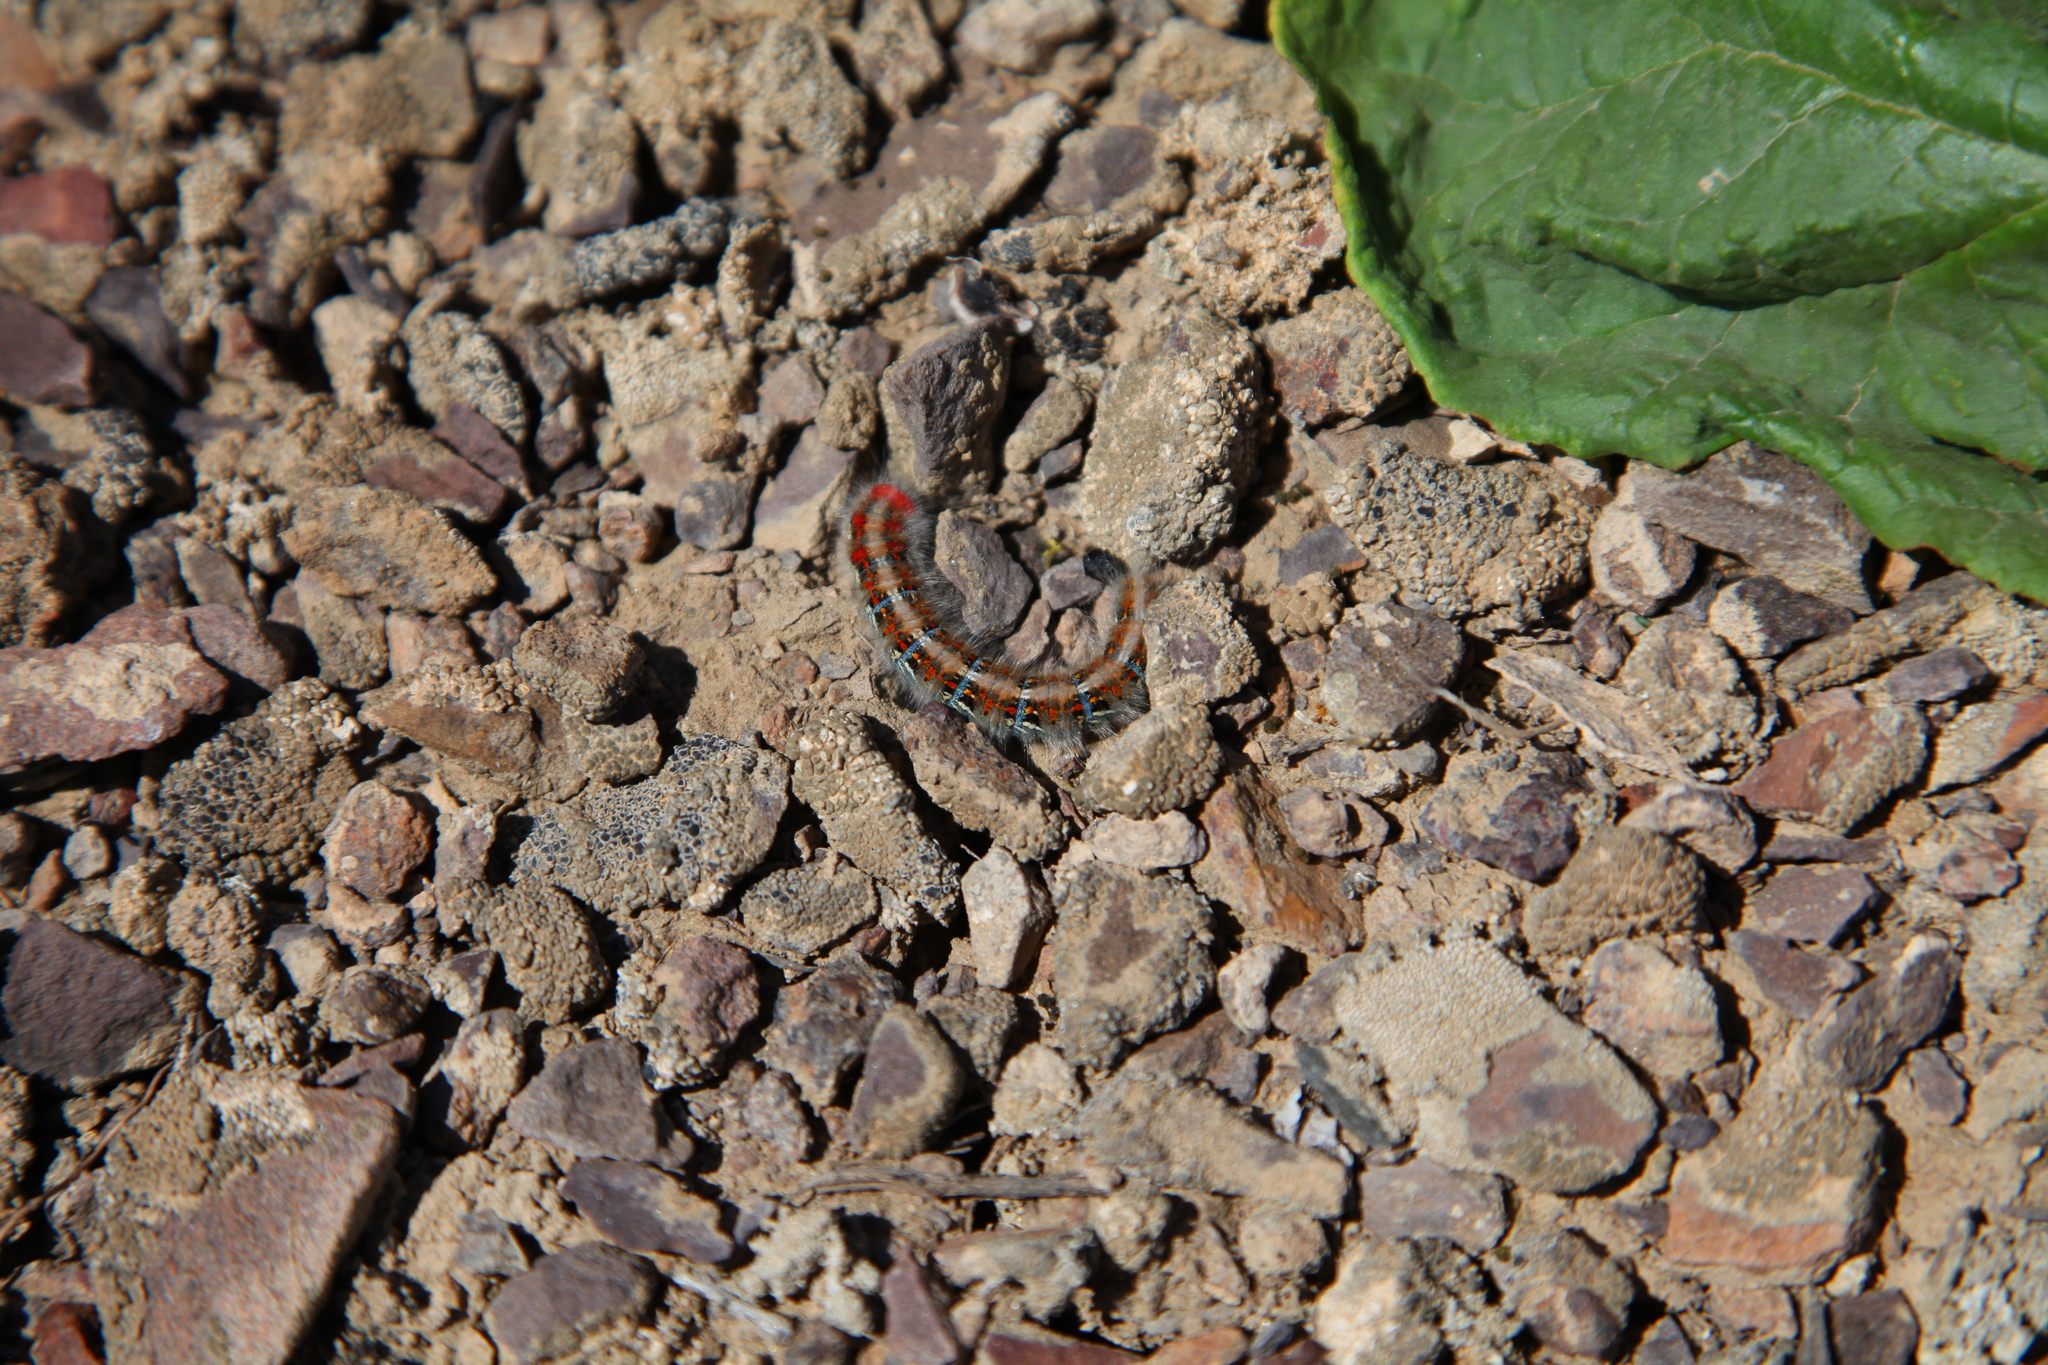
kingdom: Animalia
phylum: Arthropoda
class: Insecta
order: Lepidoptera
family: Lasiocampidae
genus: Lasiocampa
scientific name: Lasiocampa eversmanni
